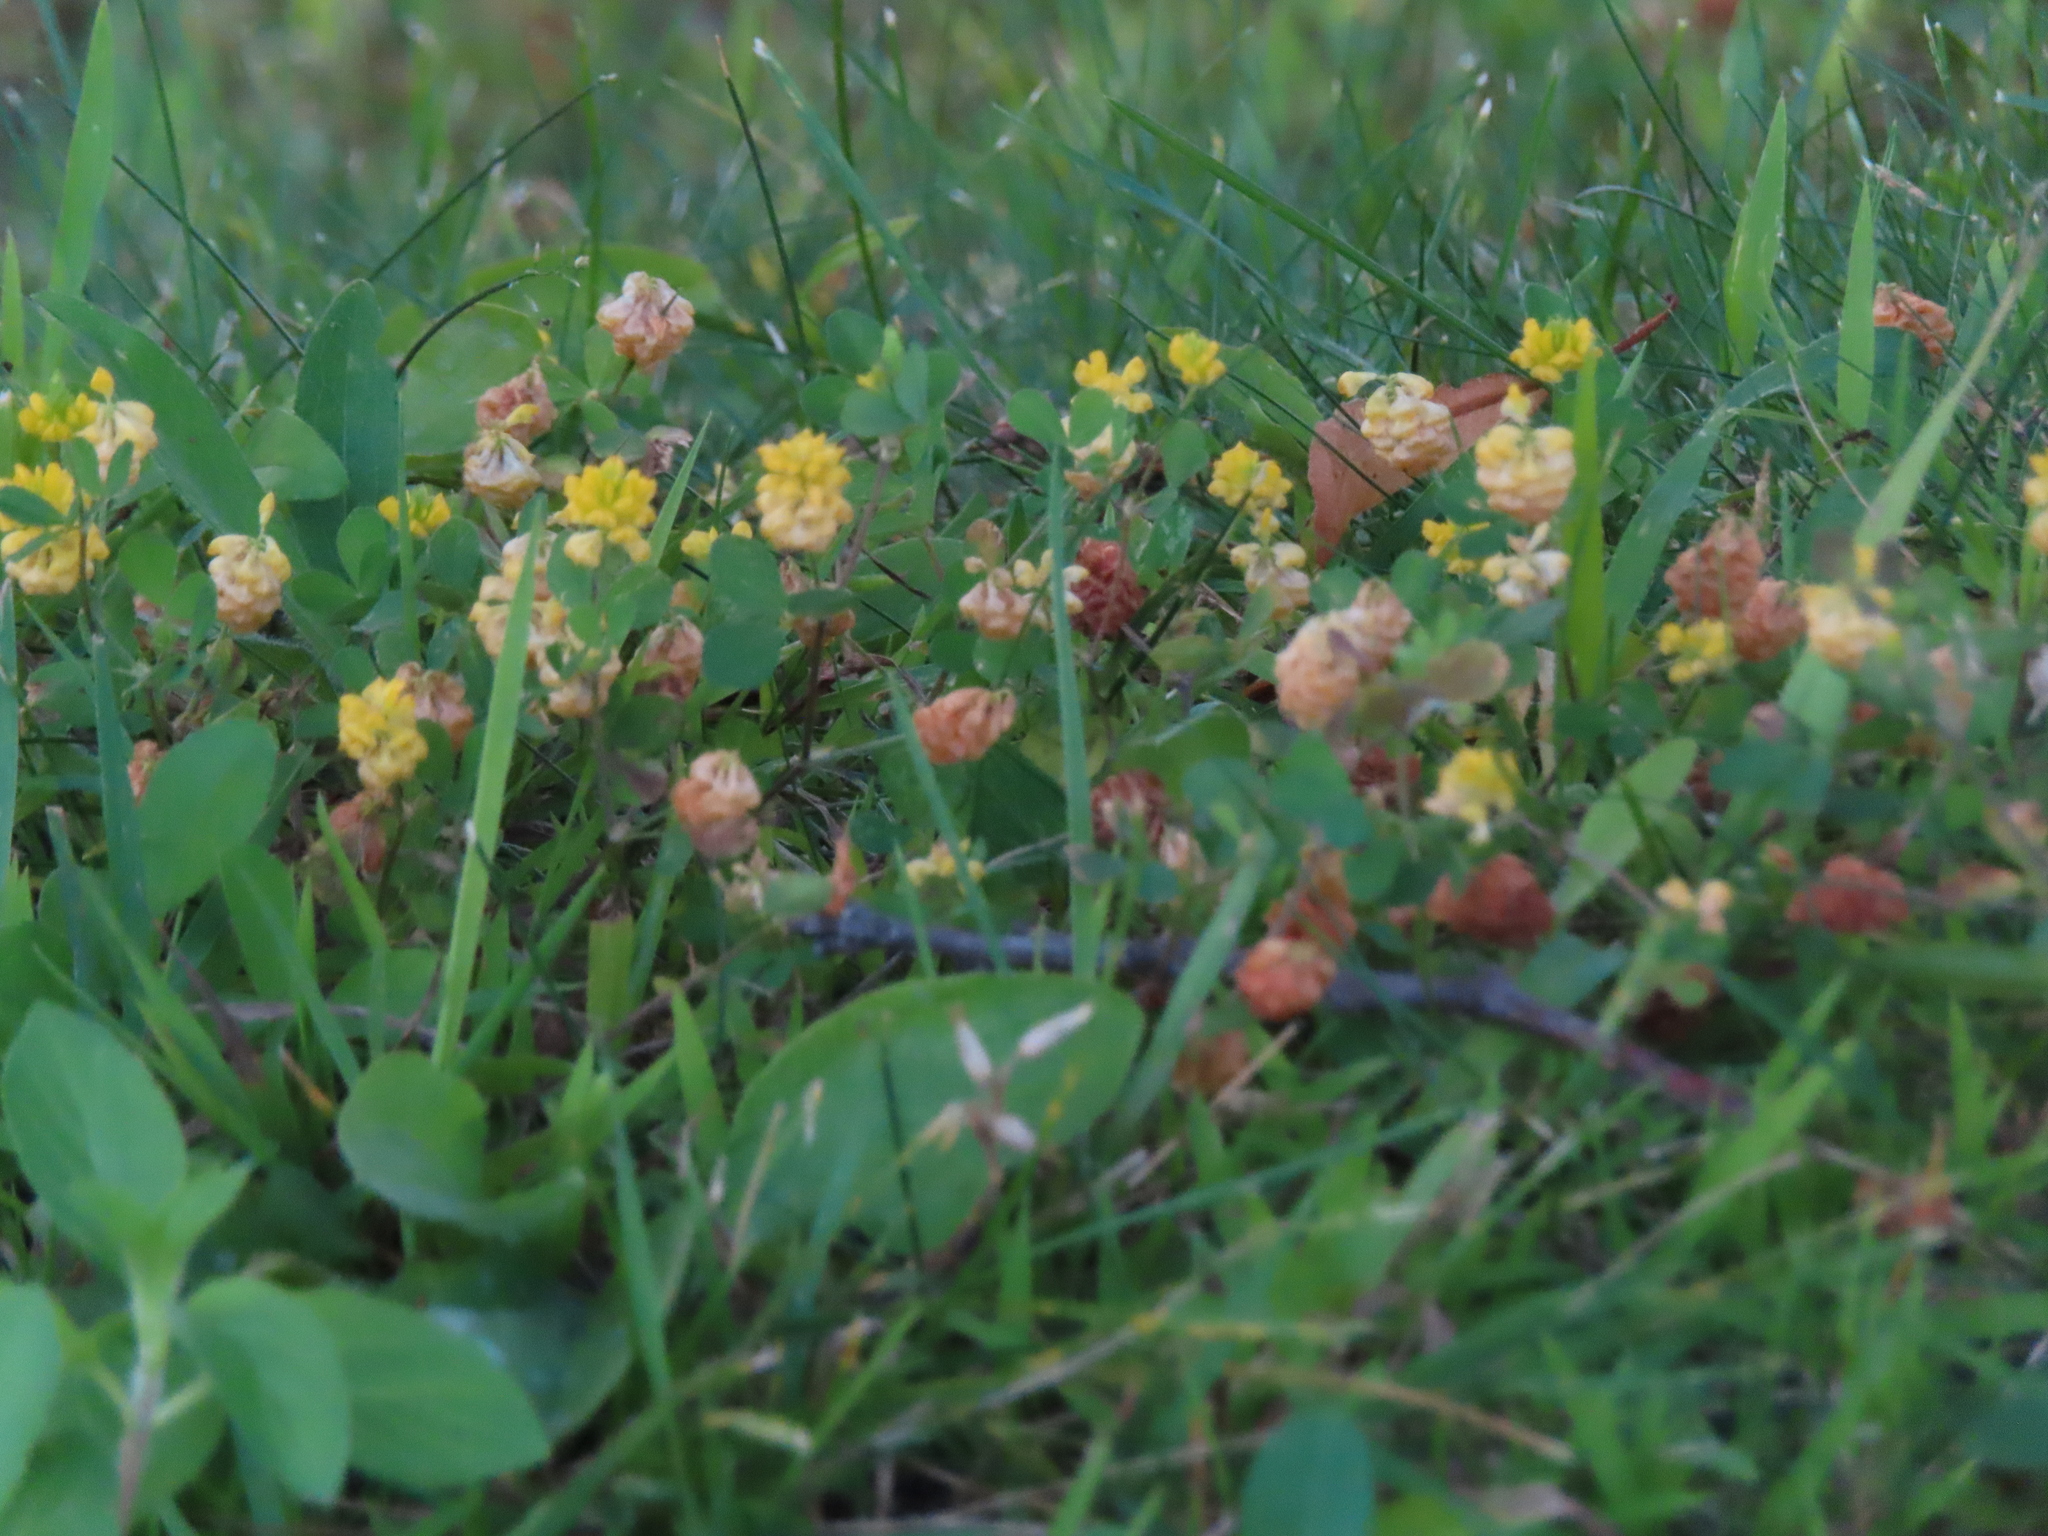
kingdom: Plantae
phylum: Tracheophyta
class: Magnoliopsida
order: Fabales
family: Fabaceae
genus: Trifolium
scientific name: Trifolium campestre
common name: Field clover
